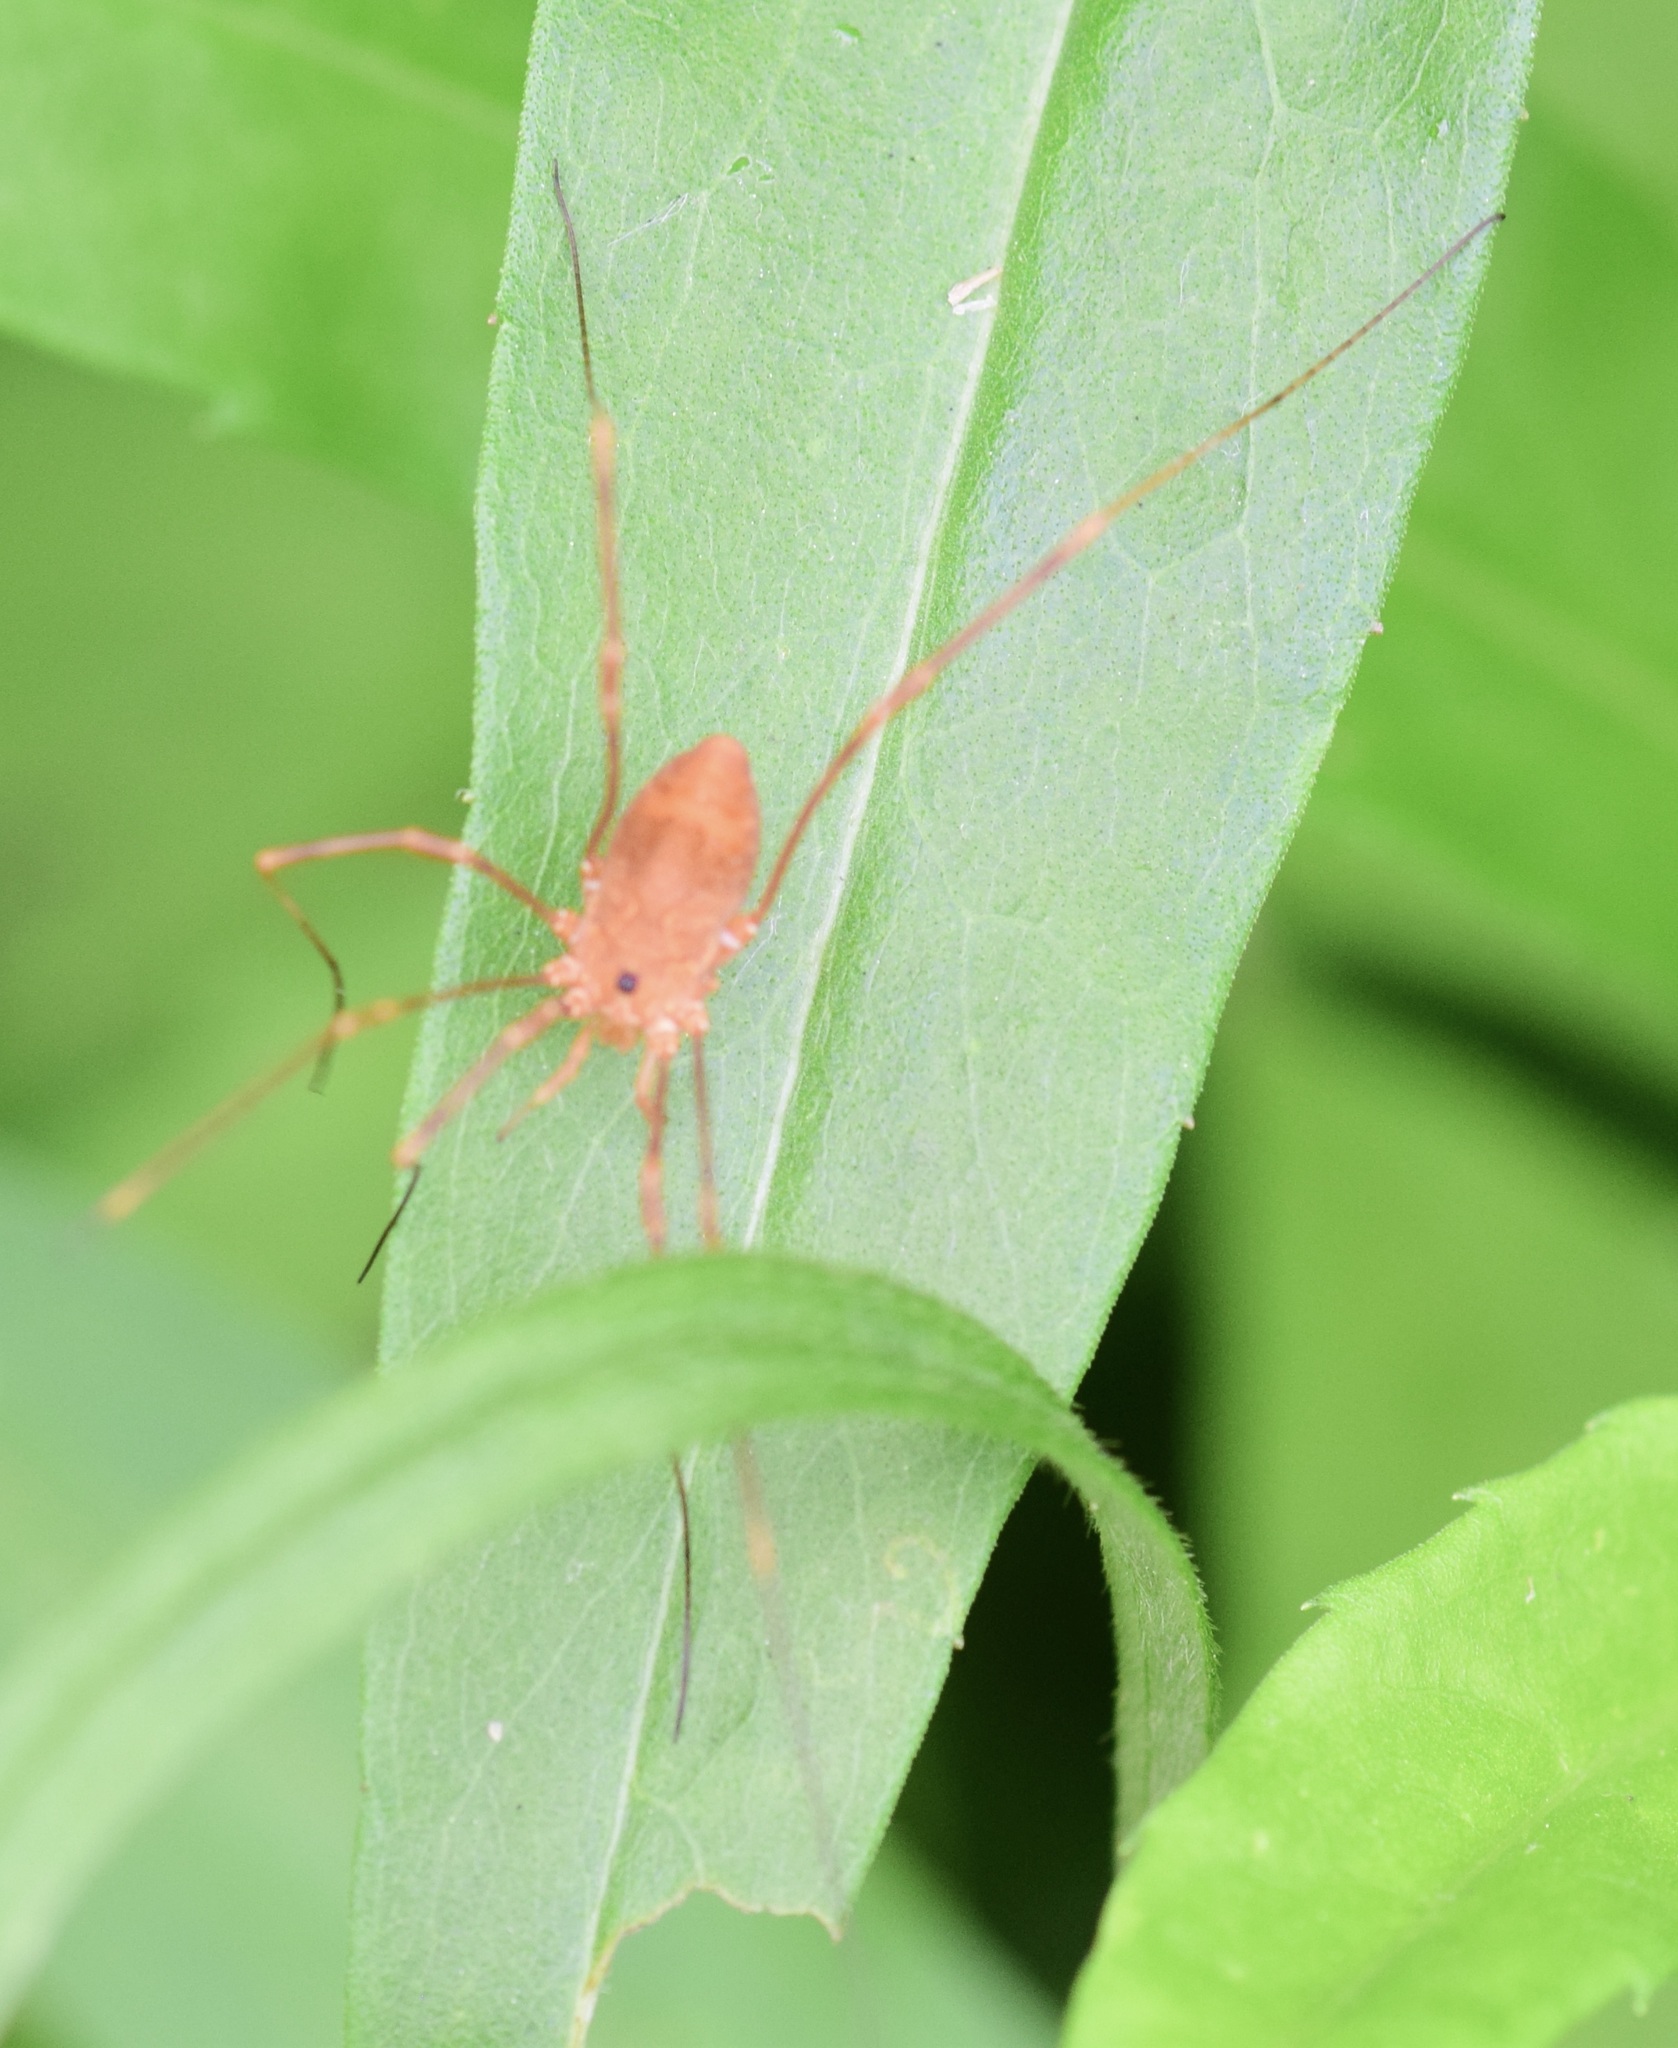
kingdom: Animalia
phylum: Arthropoda
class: Arachnida
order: Opiliones
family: Sclerosomatidae
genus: Leiobunum
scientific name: Leiobunum ventricosum
